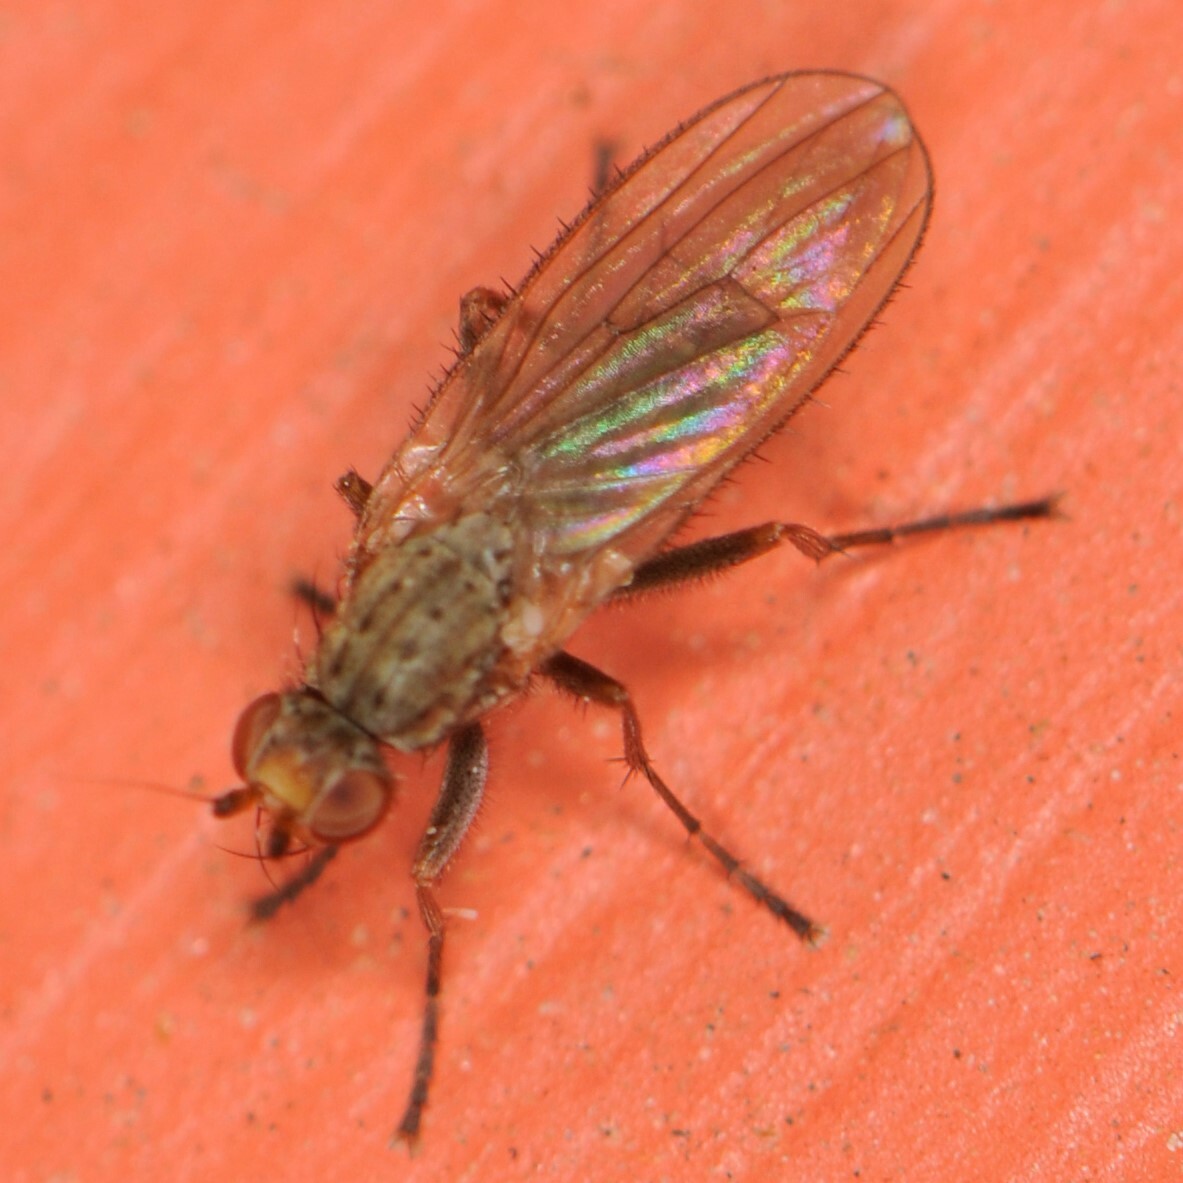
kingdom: Animalia
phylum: Arthropoda
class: Insecta
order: Diptera
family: Heleomyzidae
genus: Pseudoleria
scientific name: Pseudoleria
